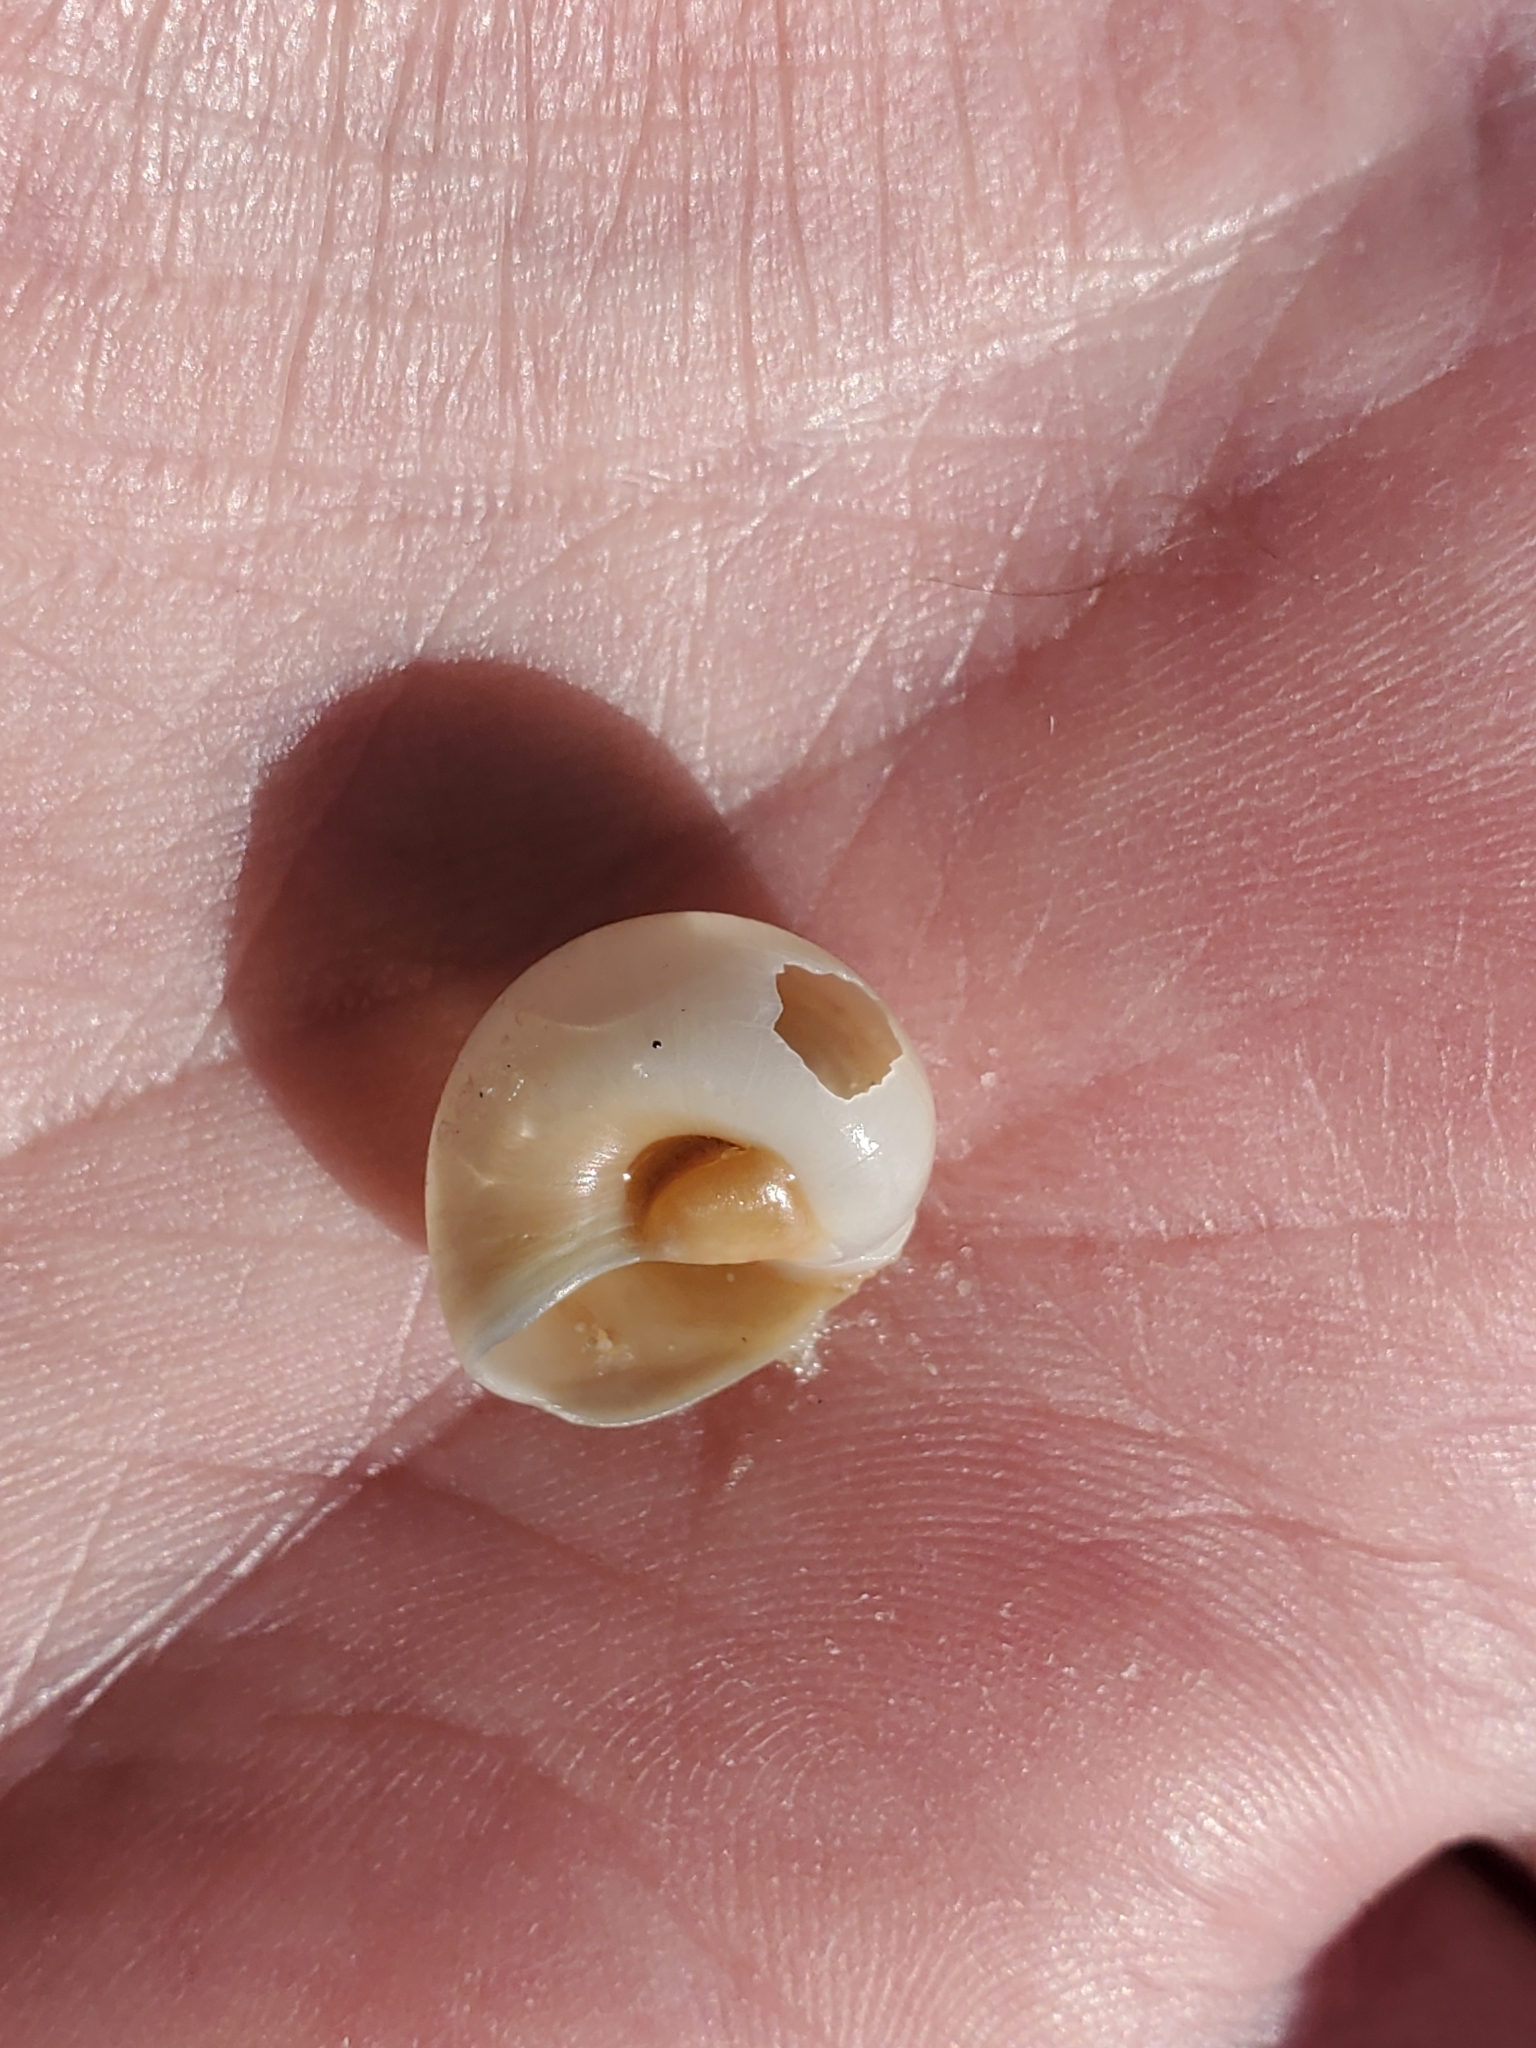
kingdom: Animalia
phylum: Mollusca
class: Gastropoda
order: Littorinimorpha
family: Naticidae
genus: Neverita
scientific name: Neverita duplicata
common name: Lobed moonsnail
